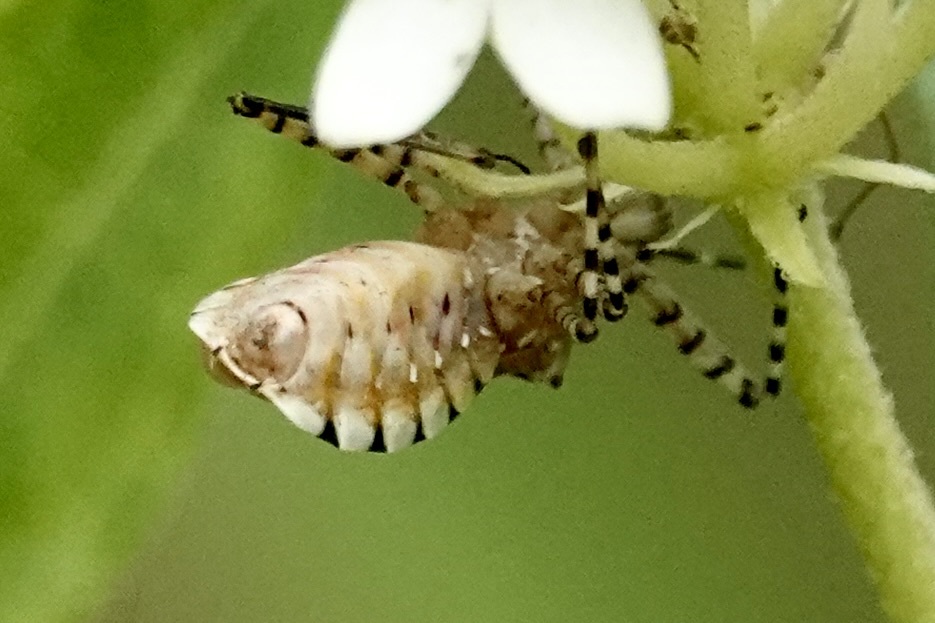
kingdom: Animalia
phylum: Arthropoda
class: Insecta
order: Hemiptera
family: Reduviidae
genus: Pselliopus
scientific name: Pselliopus cinctus
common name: Ringed assassin bug
